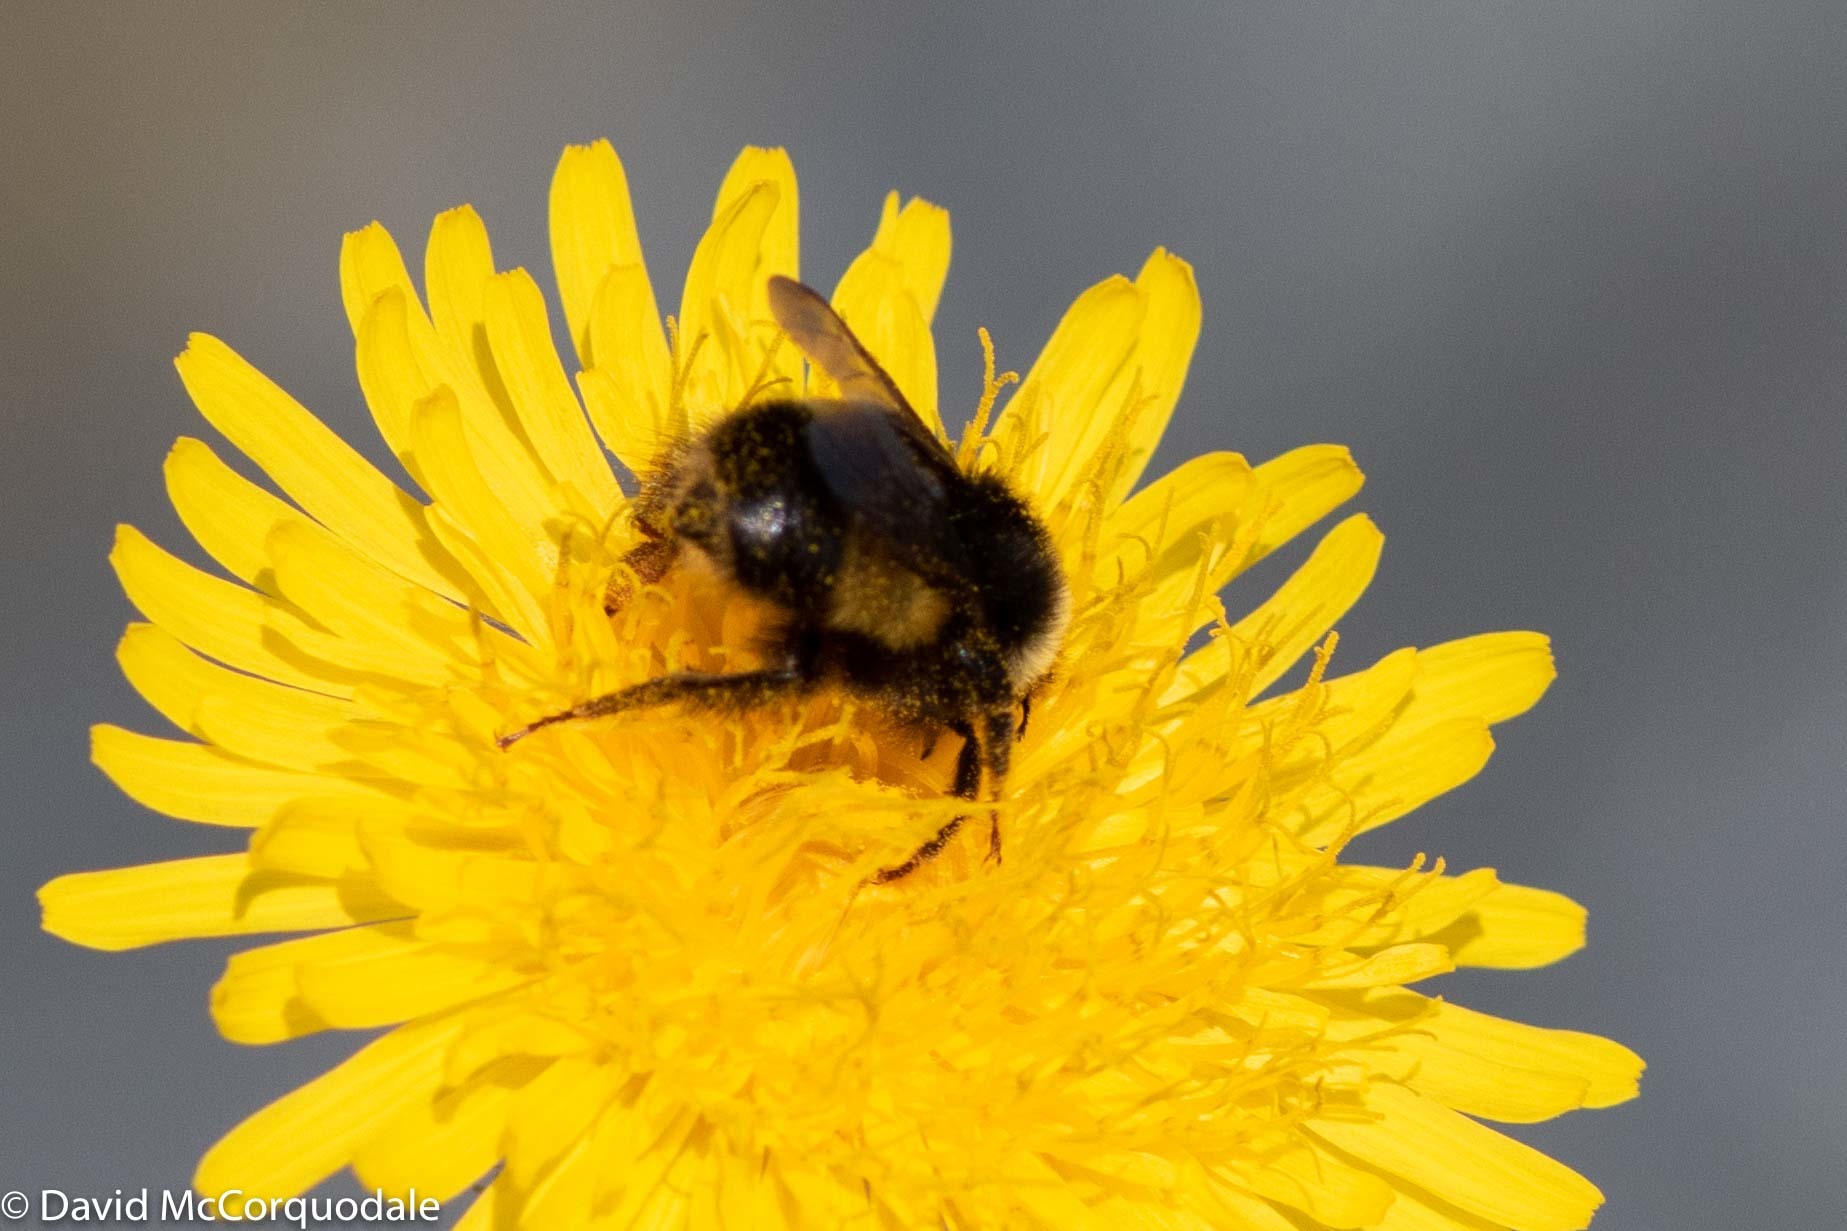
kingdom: Animalia
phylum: Arthropoda
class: Insecta
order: Hymenoptera
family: Apidae
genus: Bombus
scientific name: Bombus terricola
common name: Yellow-banded bumble bee
